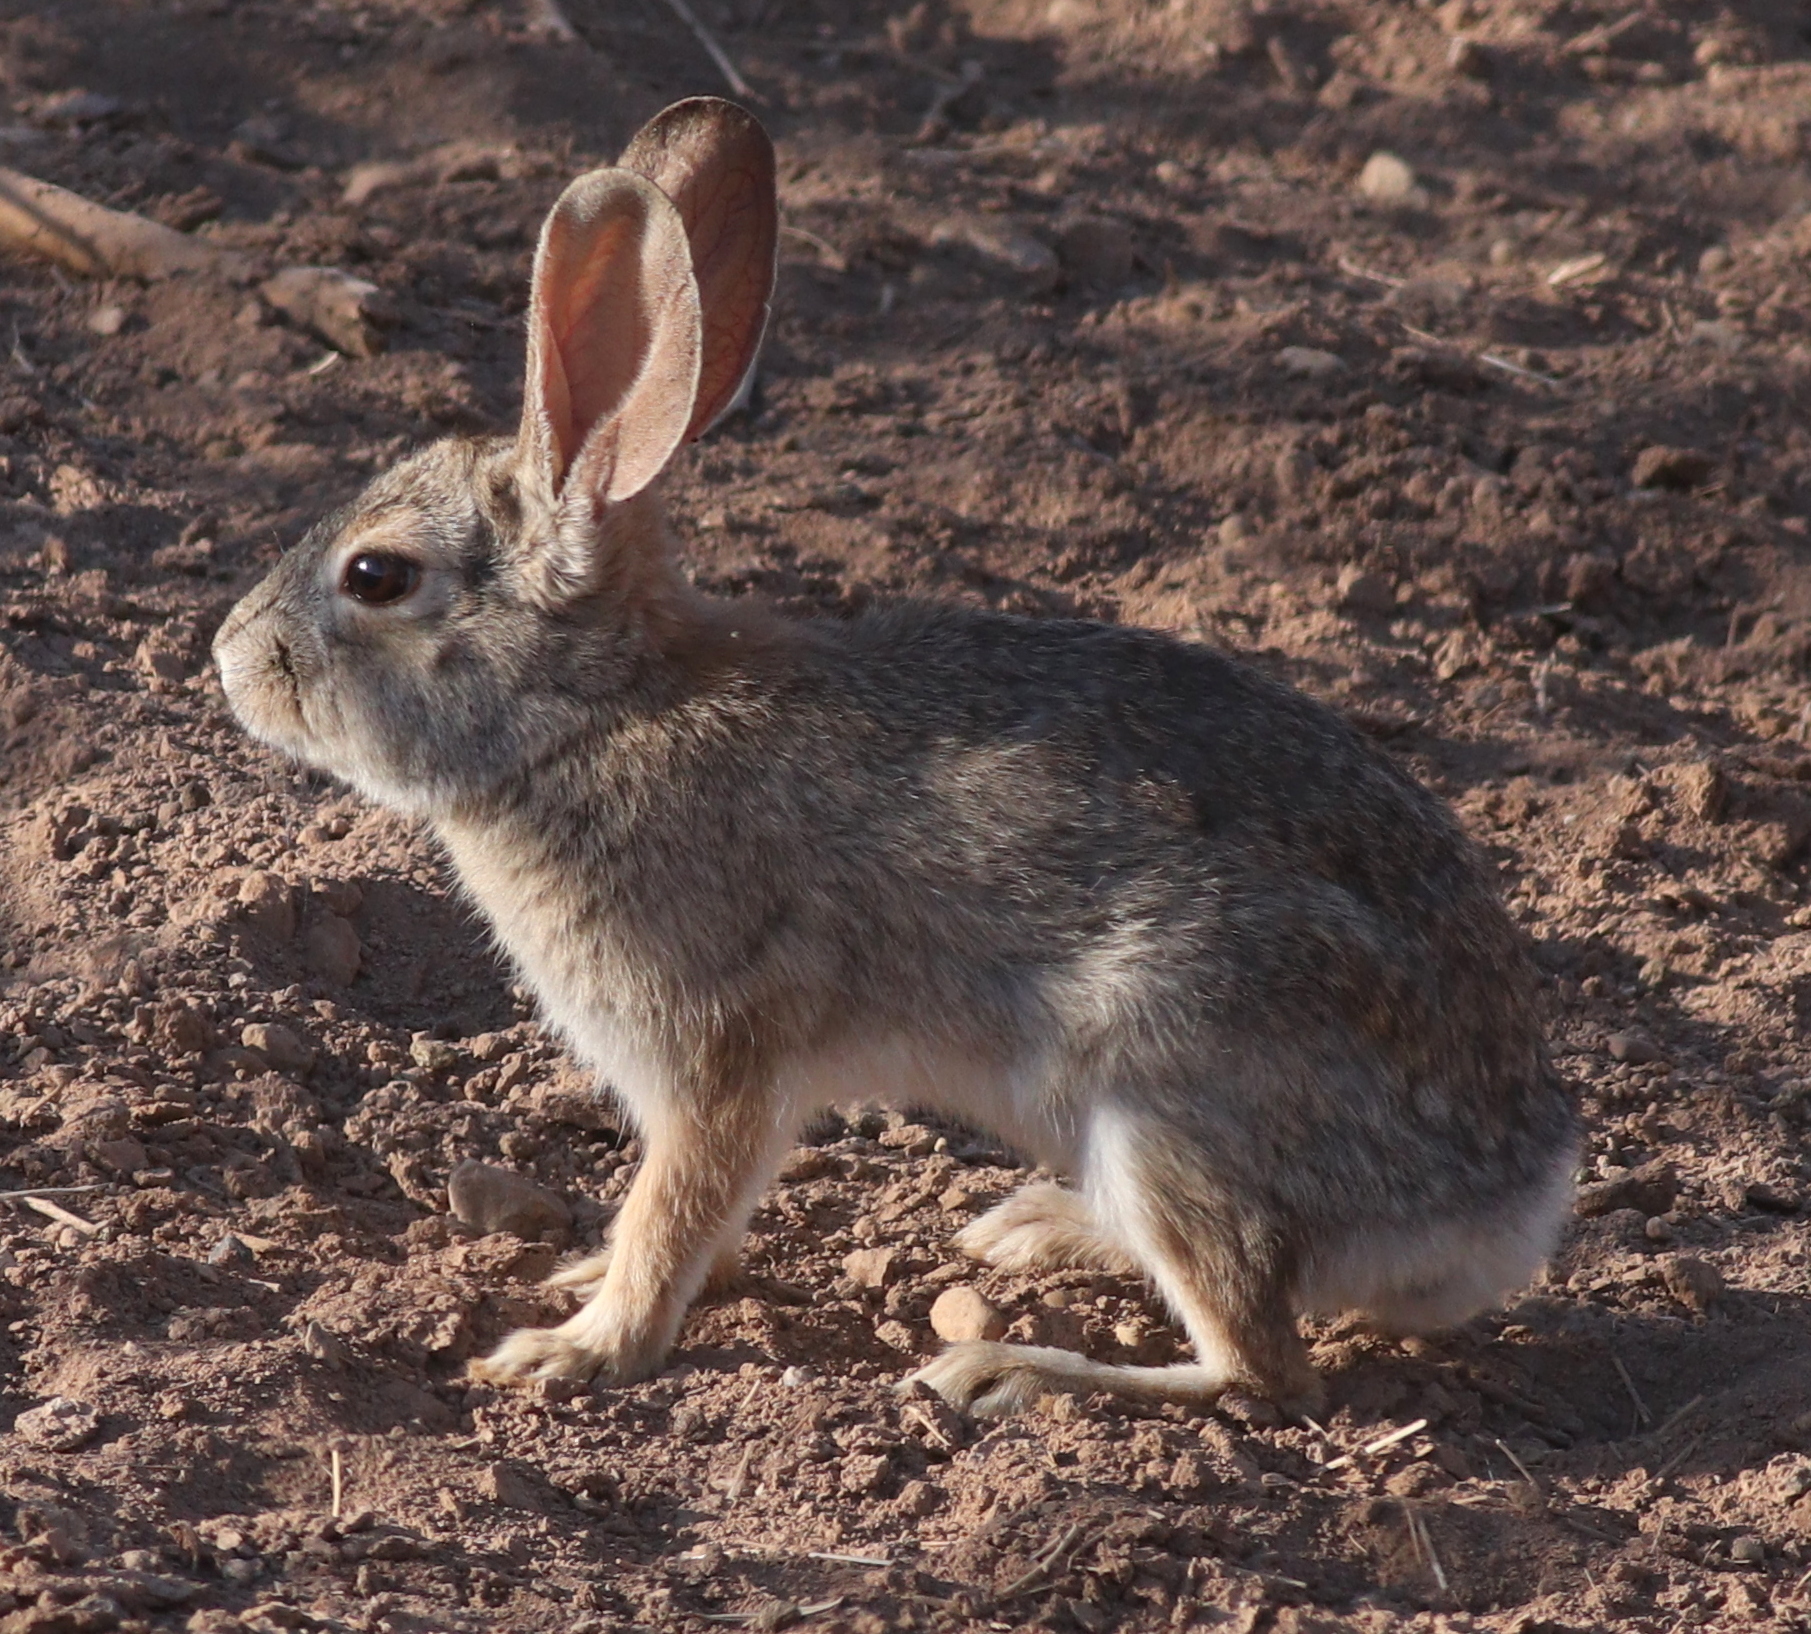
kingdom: Animalia
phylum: Chordata
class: Mammalia
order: Lagomorpha
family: Leporidae
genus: Sylvilagus
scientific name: Sylvilagus audubonii
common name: Desert cottontail
